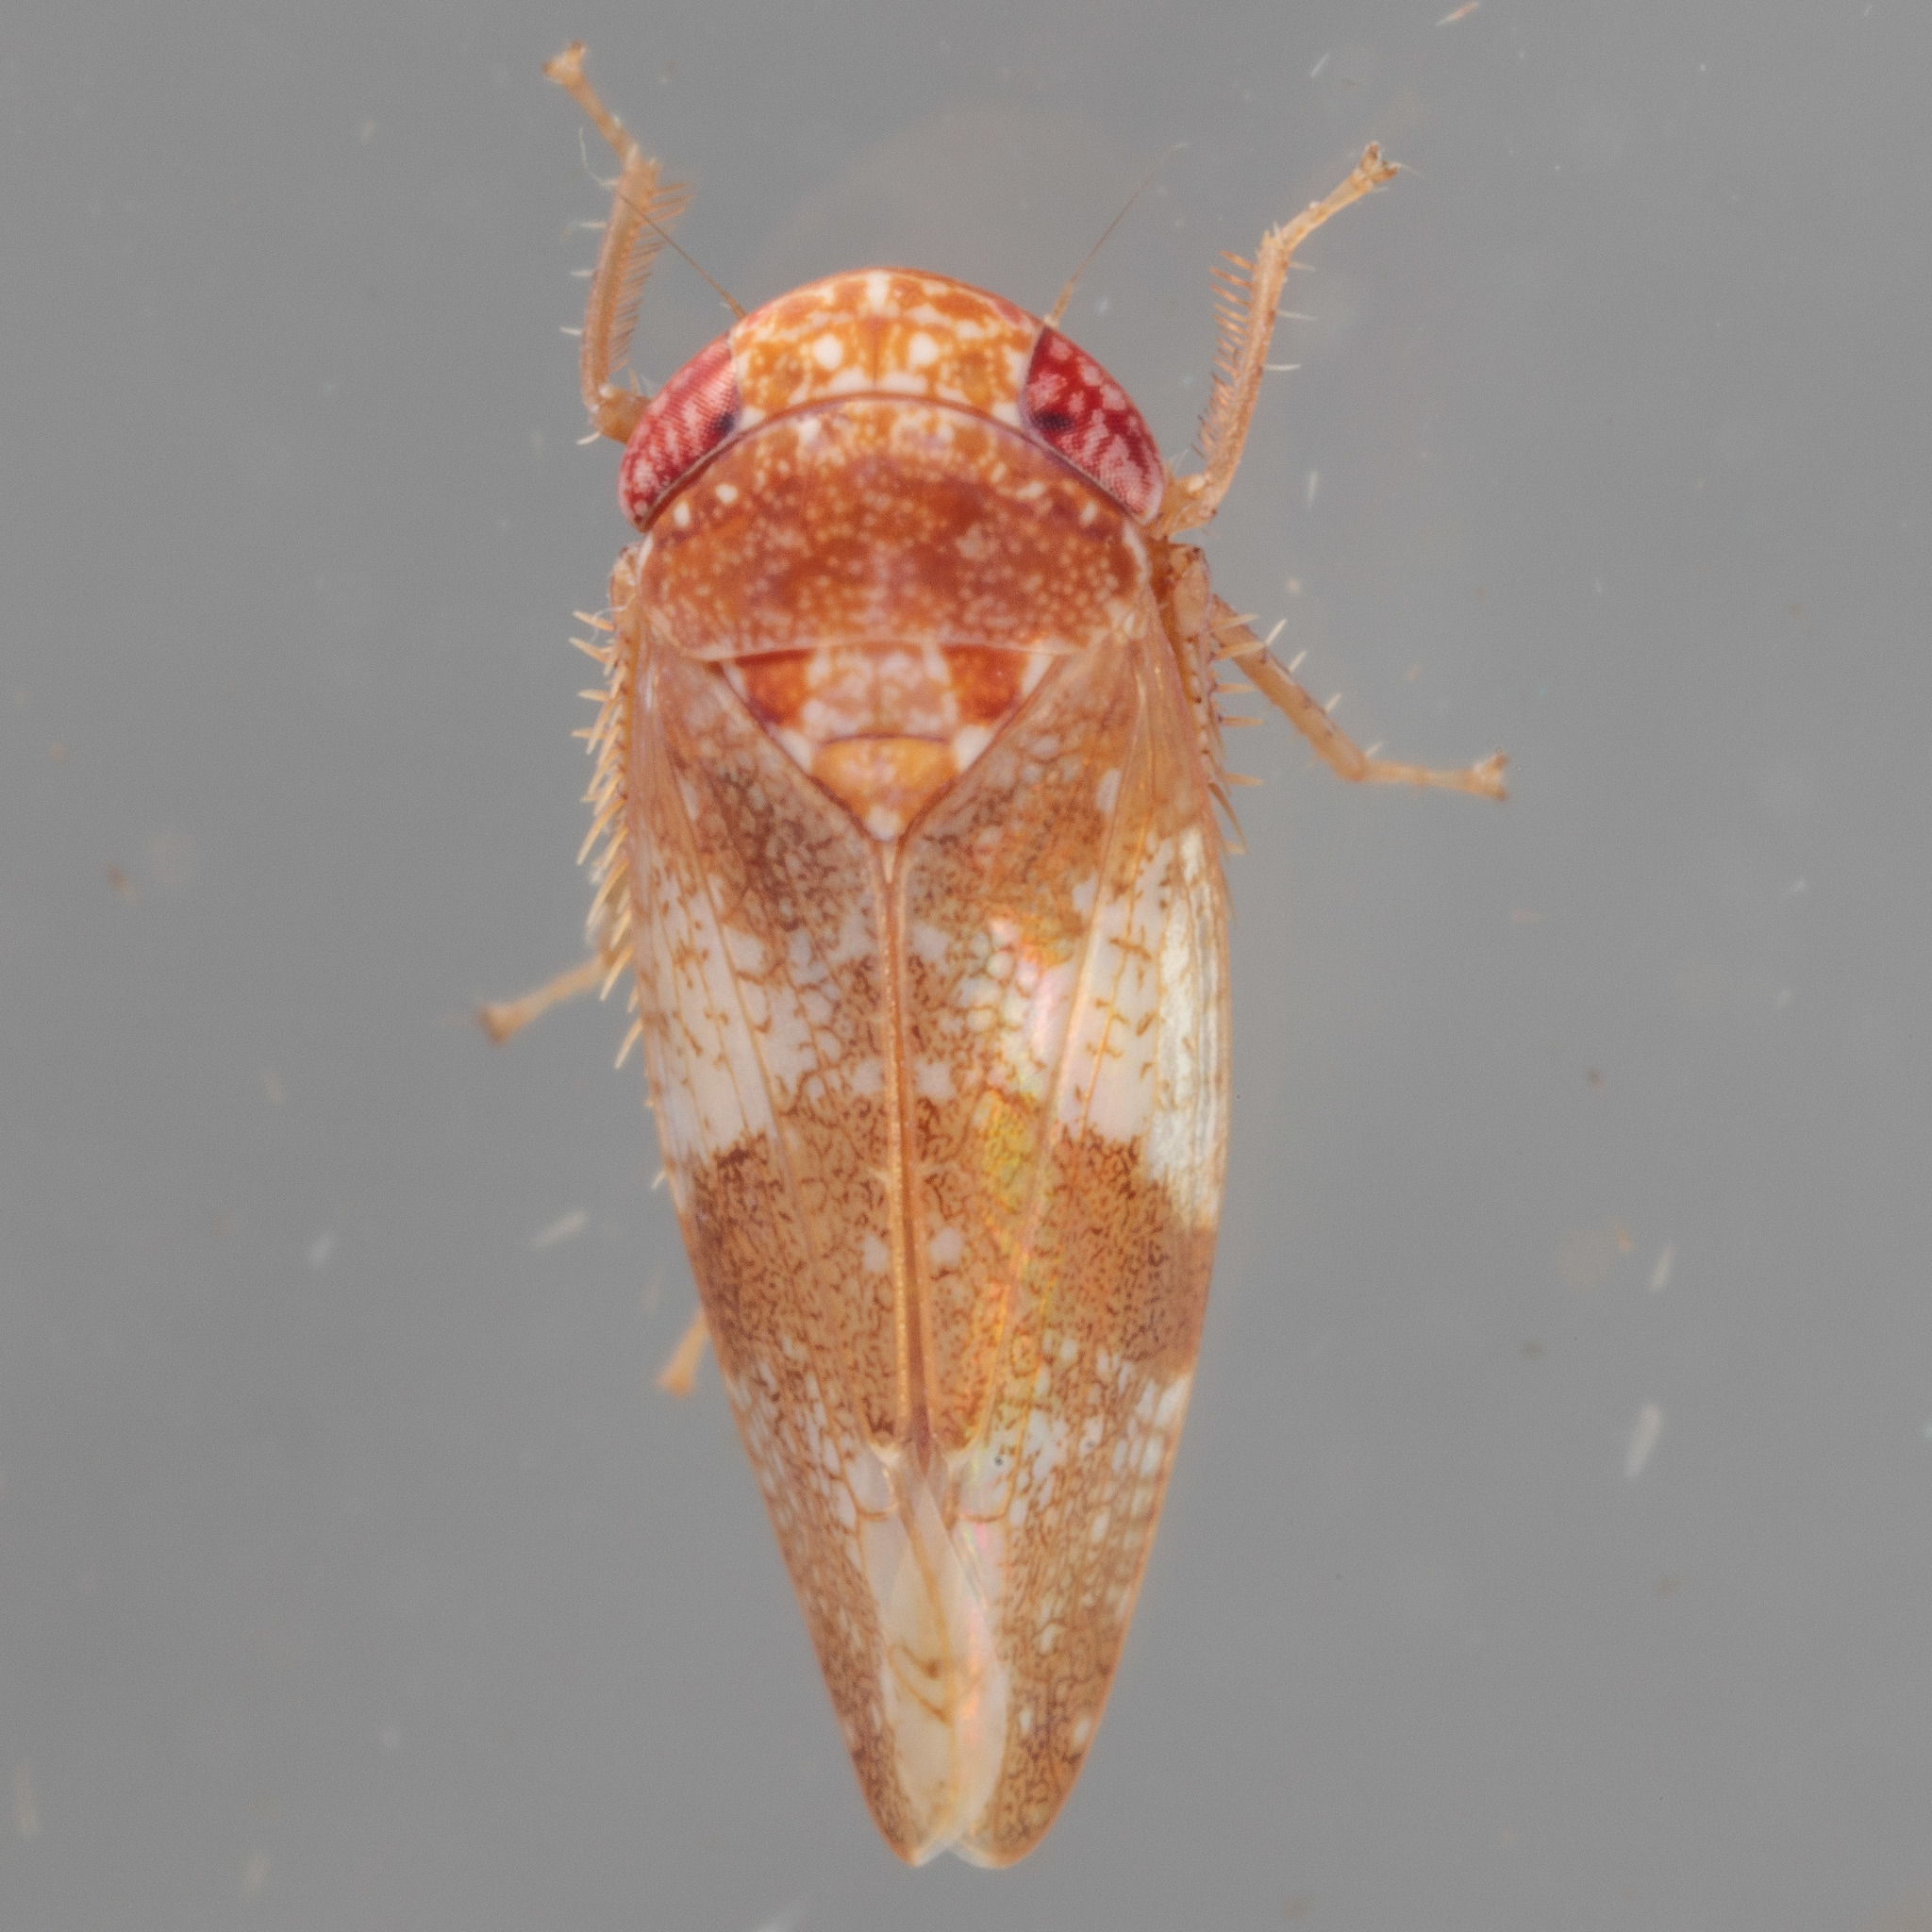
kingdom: Animalia
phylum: Arthropoda
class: Insecta
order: Hemiptera
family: Cicadellidae
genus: Norvellina
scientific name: Norvellina helenae
